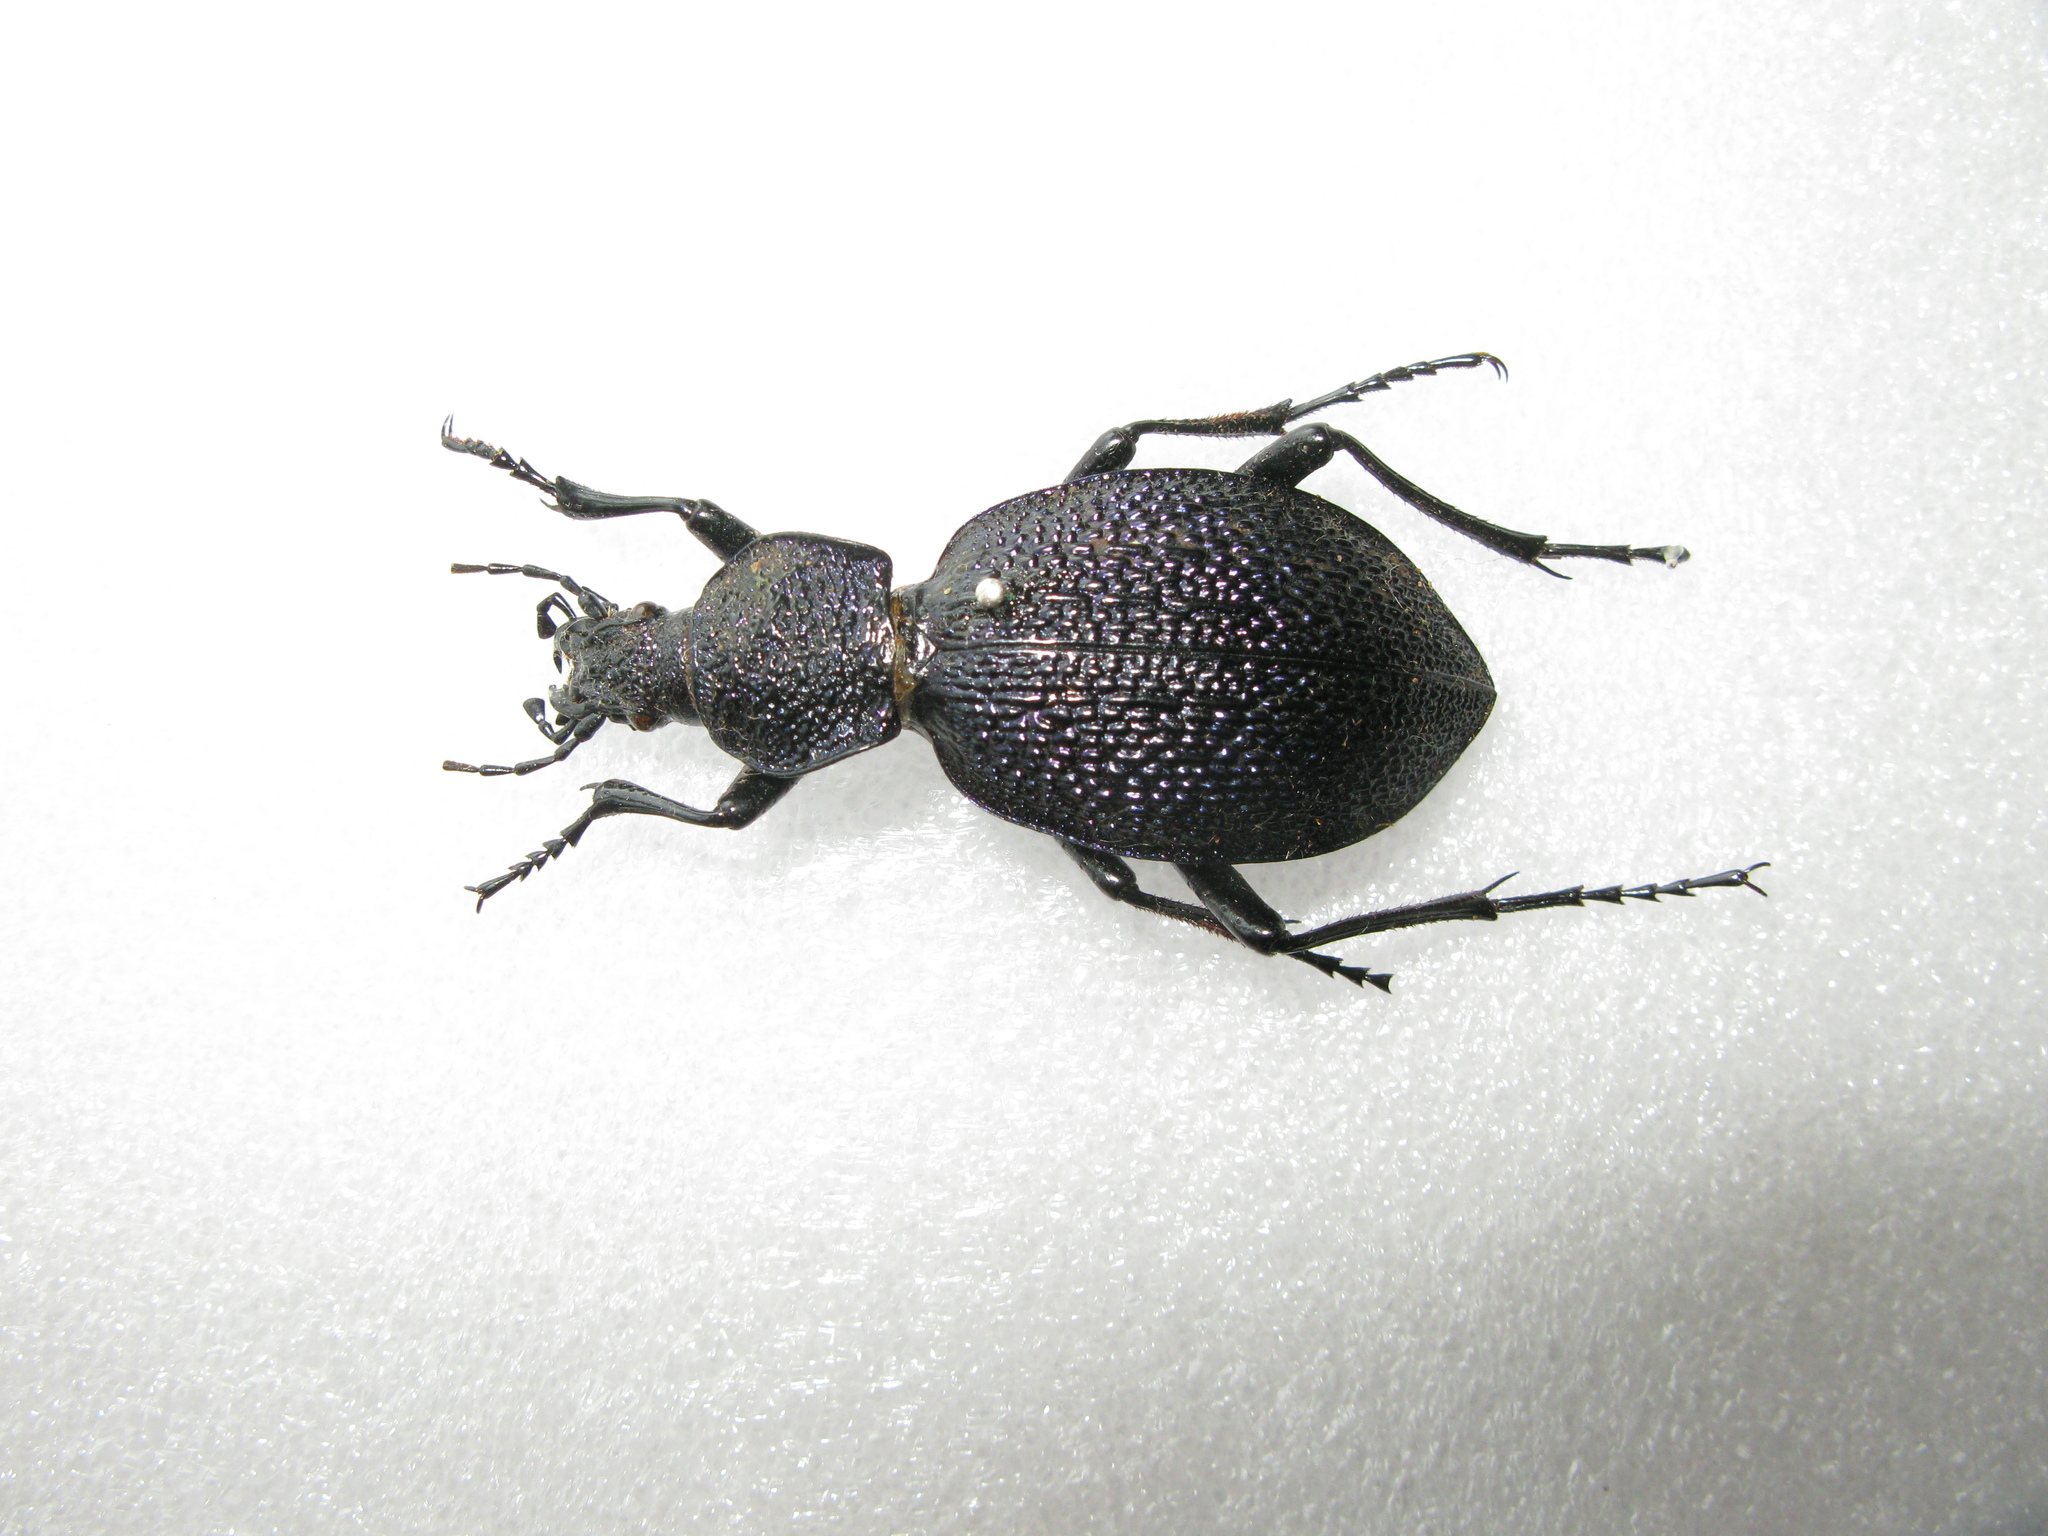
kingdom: Animalia
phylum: Arthropoda
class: Insecta
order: Coleoptera
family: Carabidae
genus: Carabus
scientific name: Carabus scabrosus
